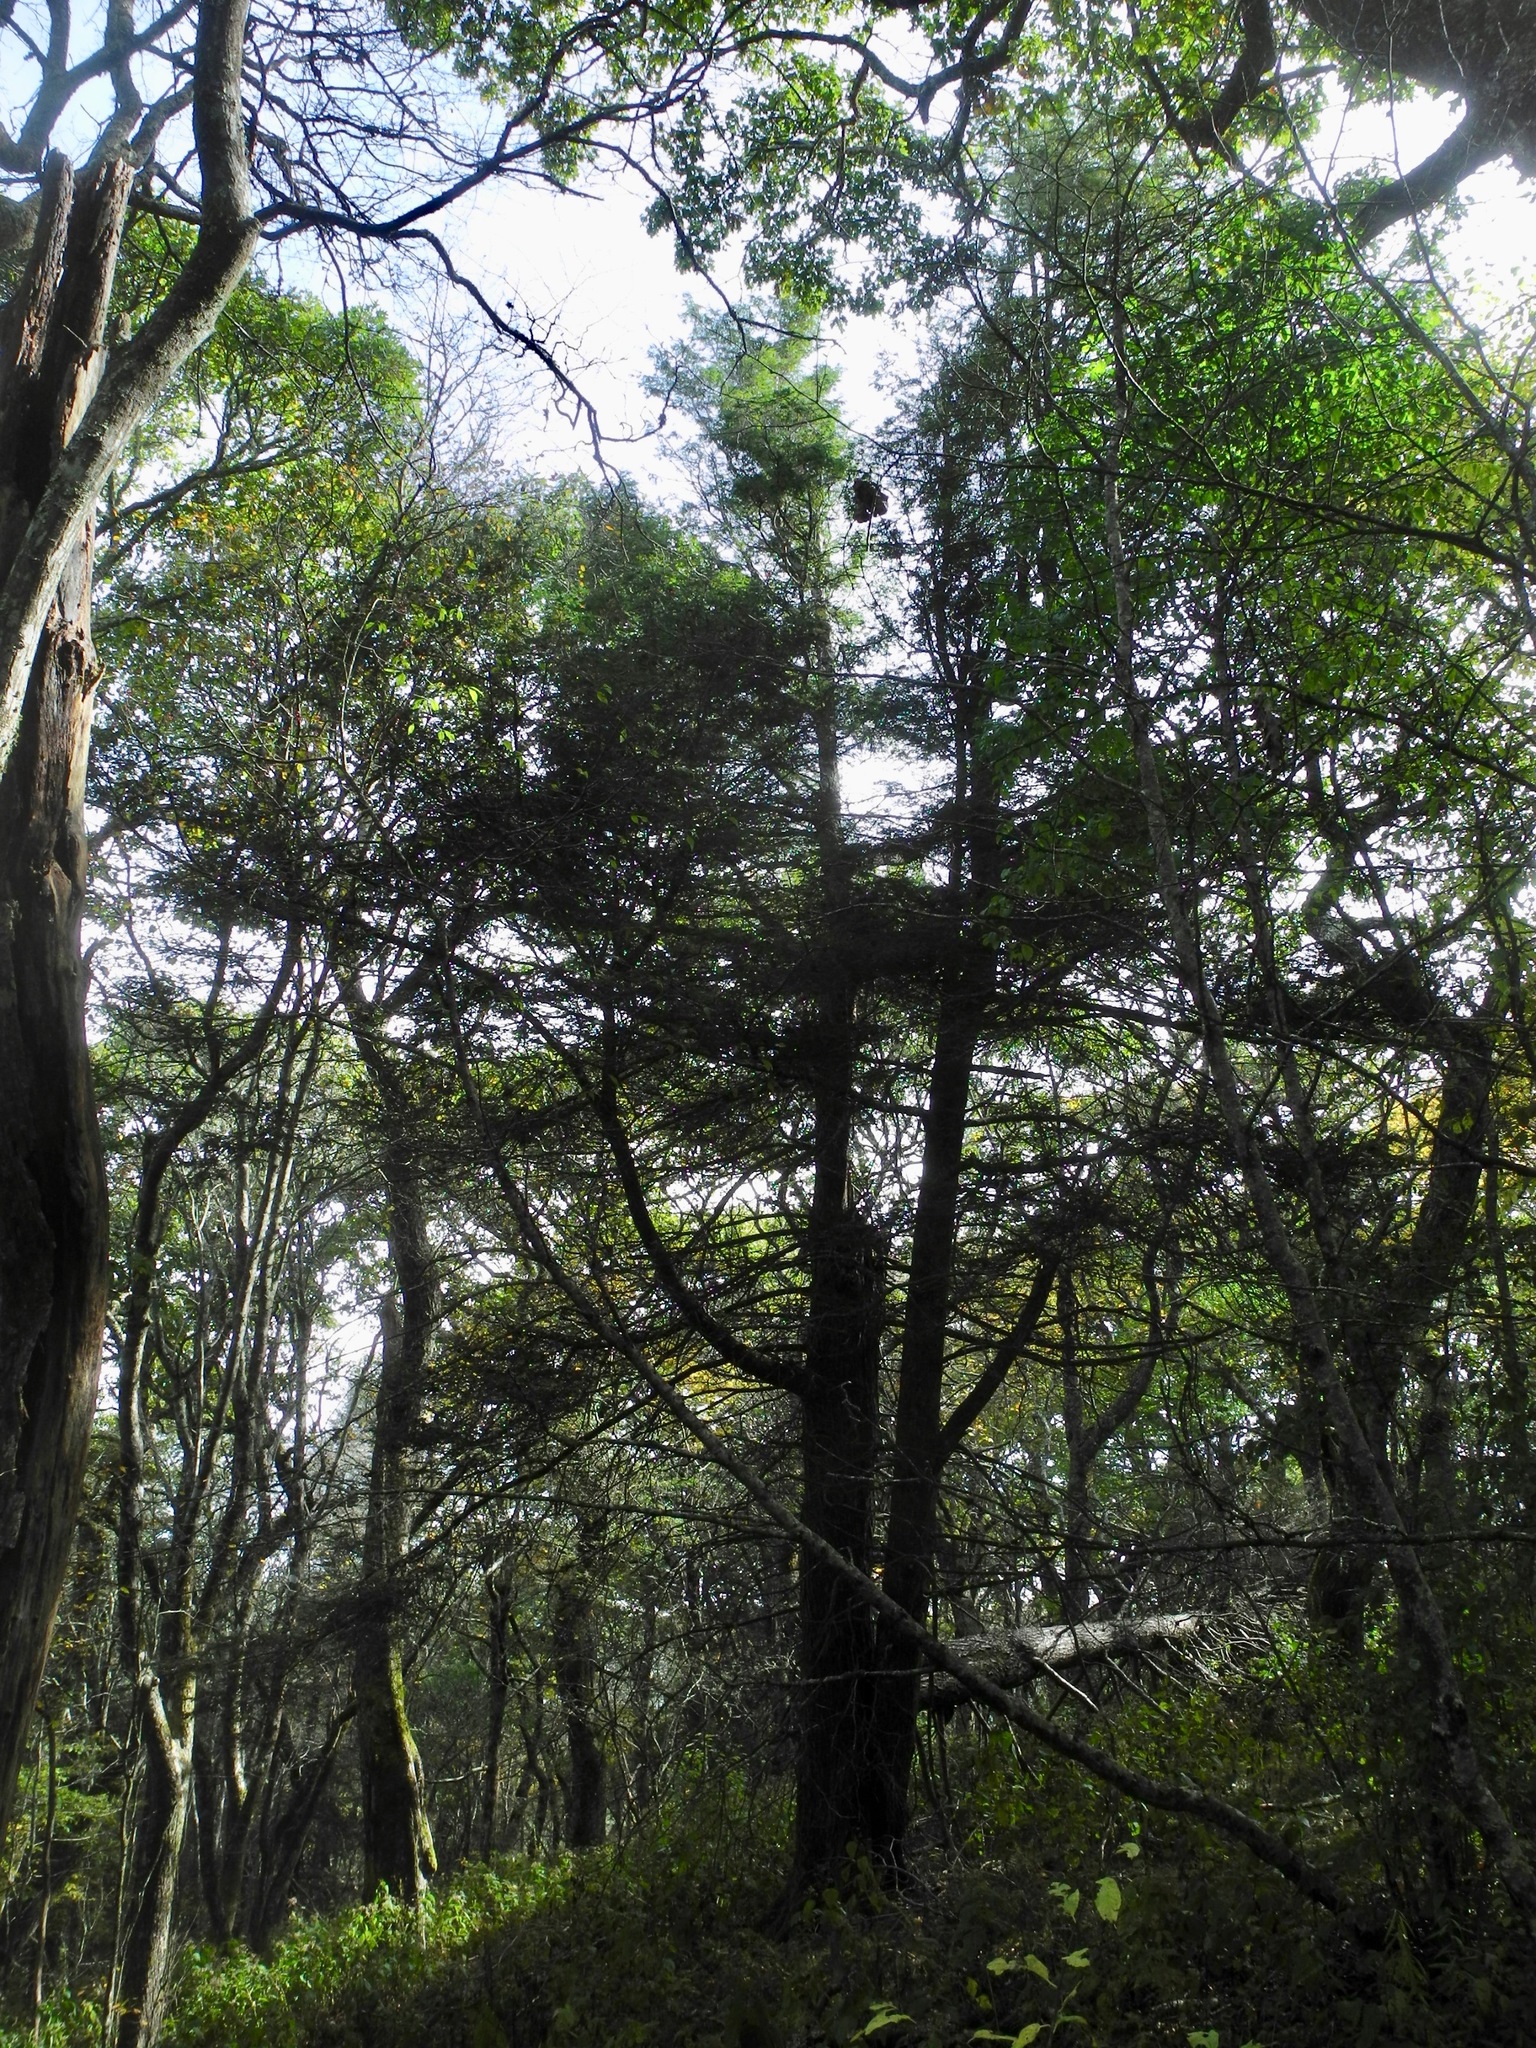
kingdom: Plantae
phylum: Tracheophyta
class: Pinopsida
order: Pinales
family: Pinaceae
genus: Tsuga
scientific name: Tsuga canadensis
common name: Eastern hemlock
